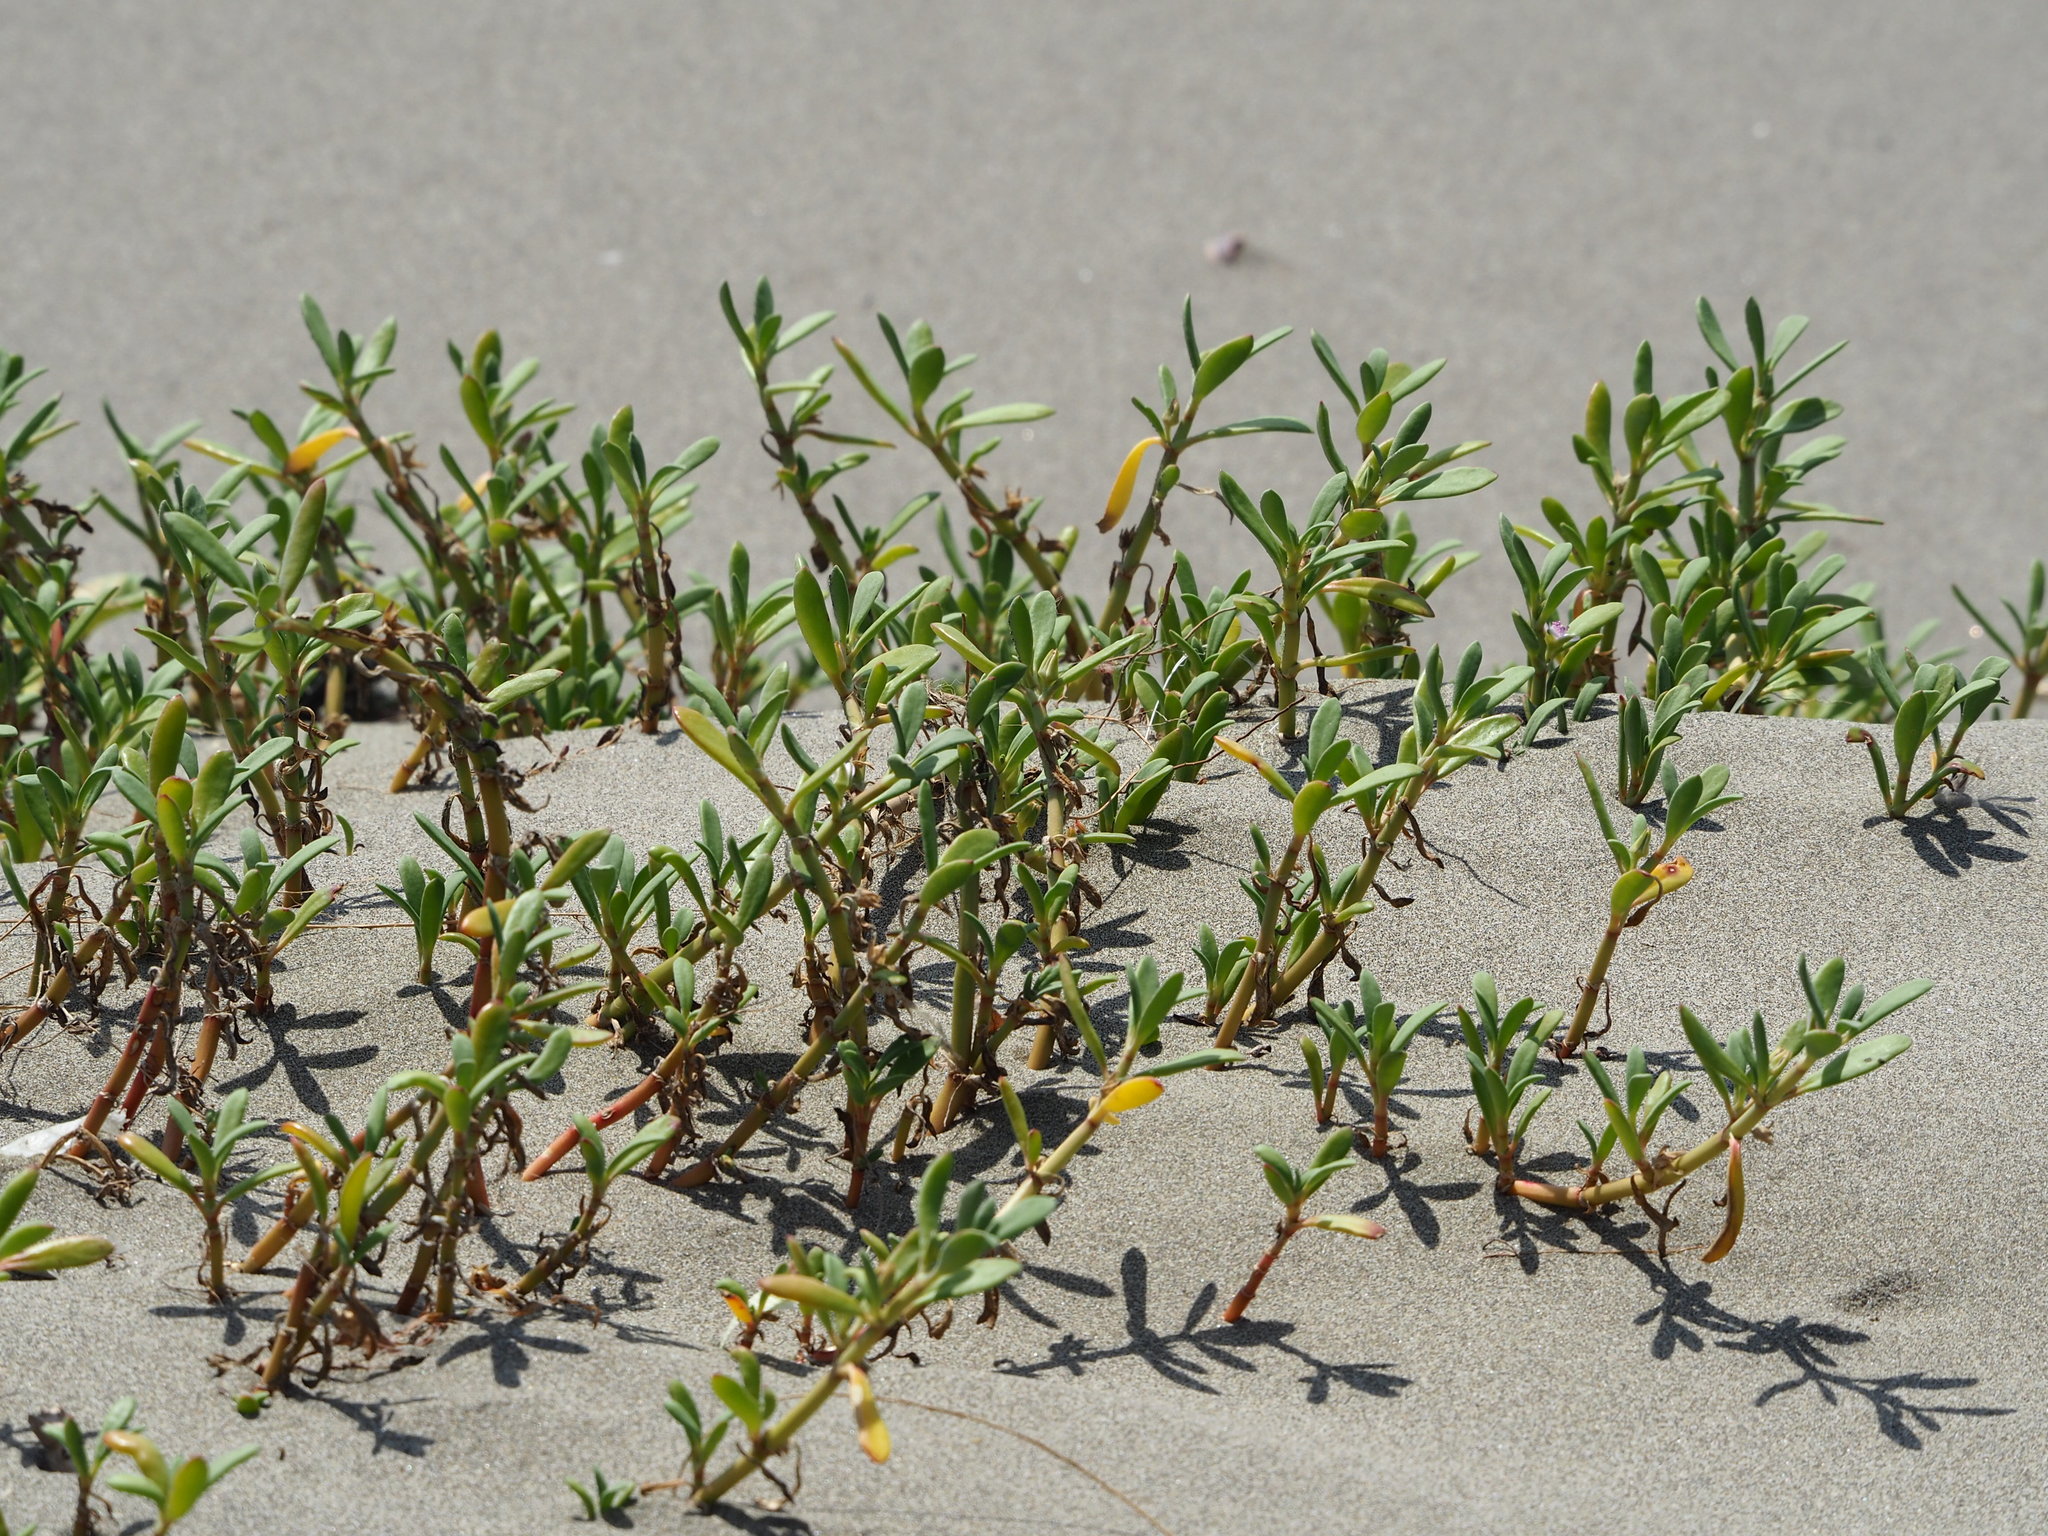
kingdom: Plantae
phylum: Tracheophyta
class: Magnoliopsida
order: Caryophyllales
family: Aizoaceae
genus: Sesuvium
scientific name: Sesuvium portulacastrum
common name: Sea-purslane
